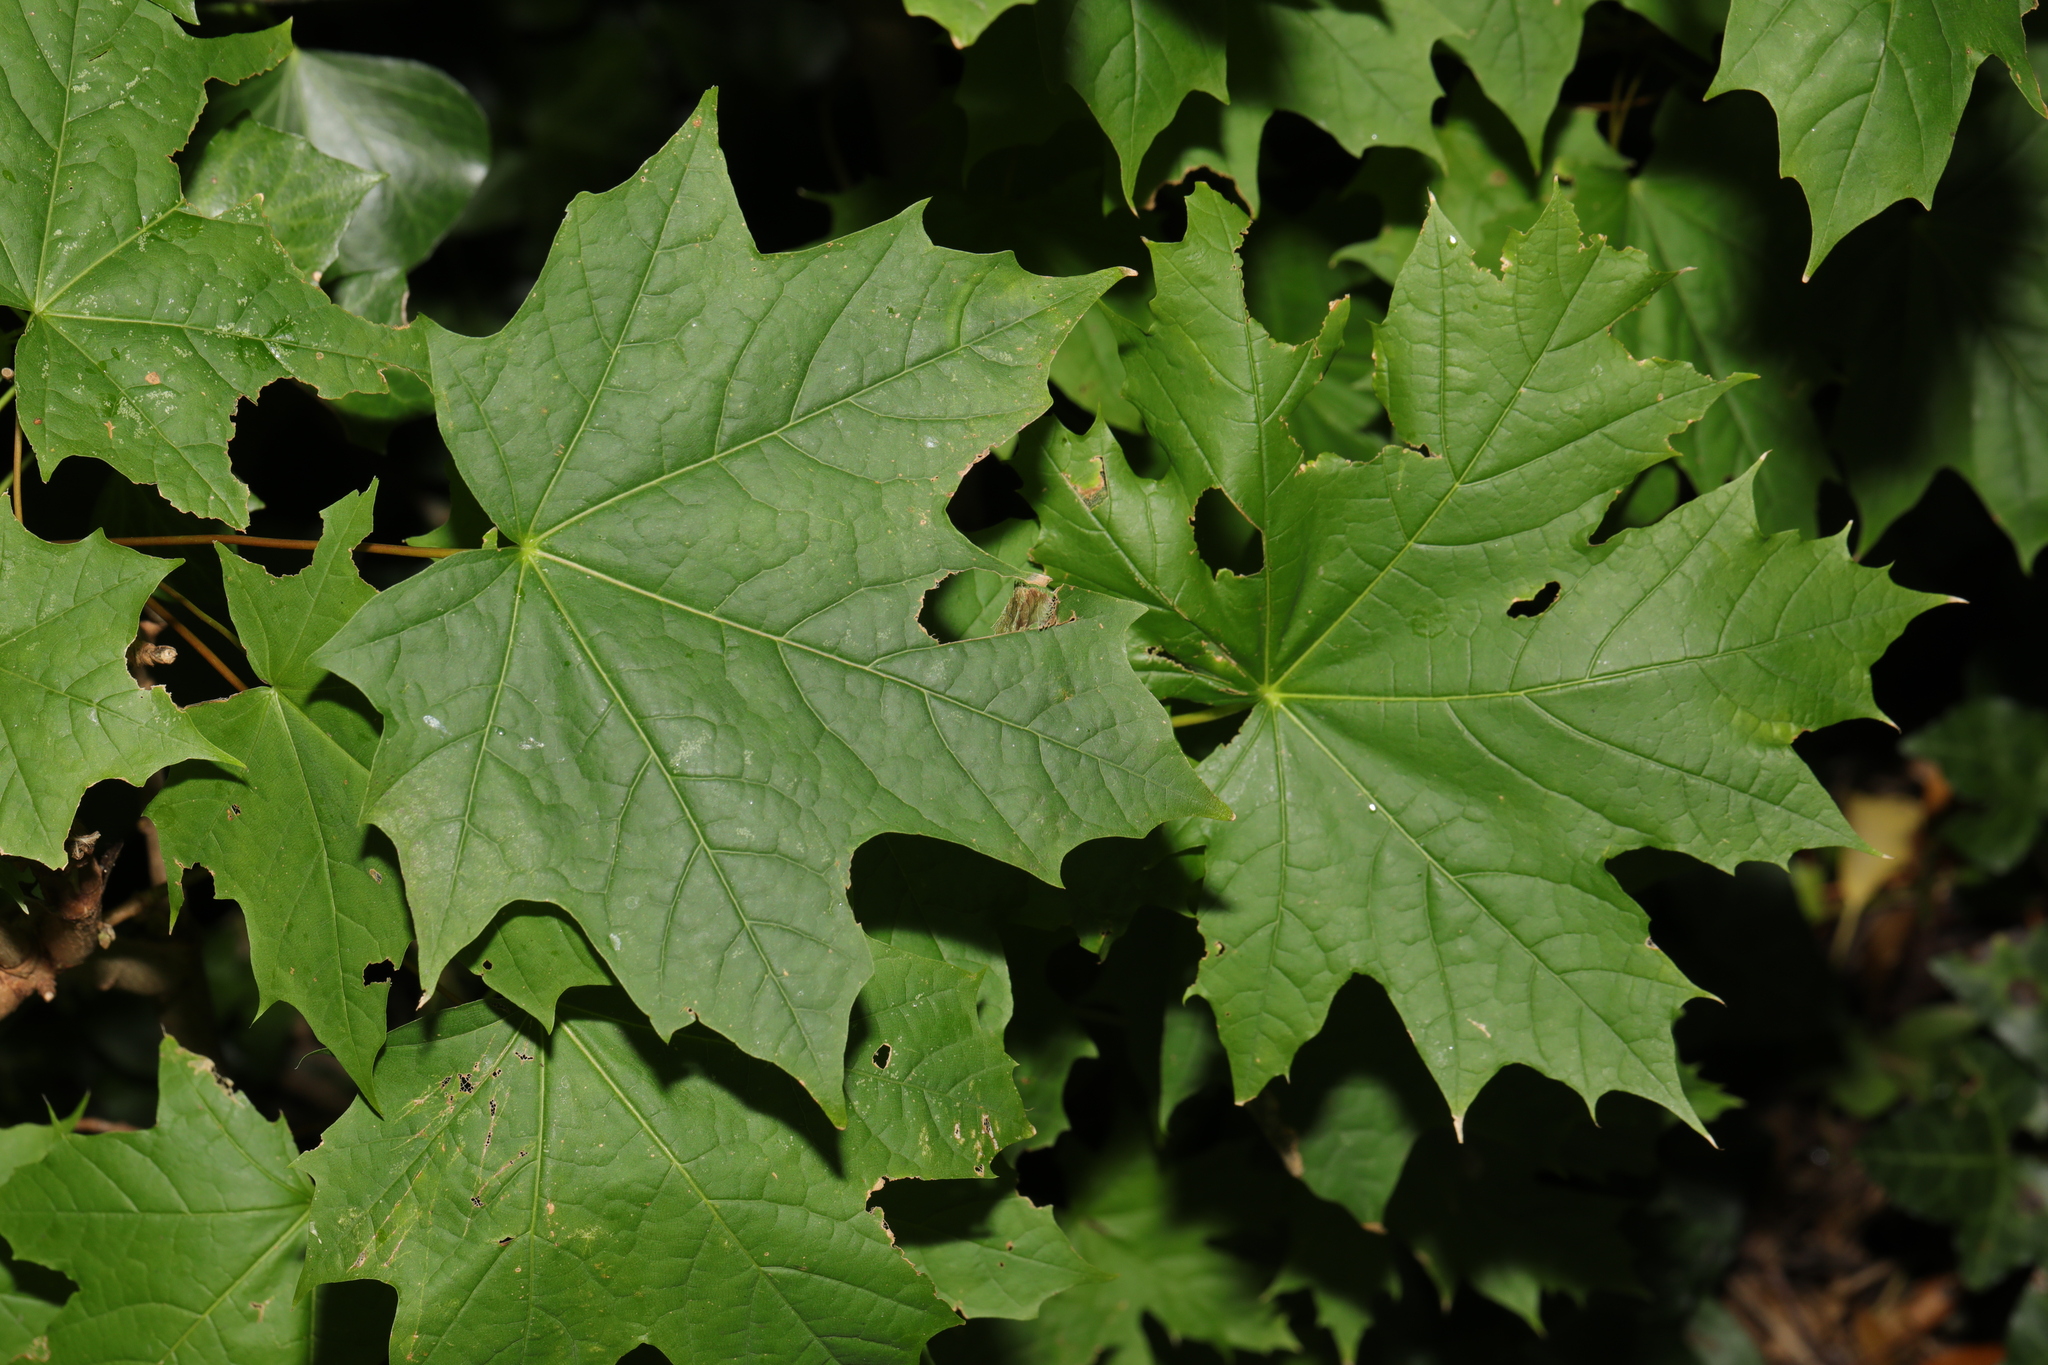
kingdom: Plantae
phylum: Tracheophyta
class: Magnoliopsida
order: Sapindales
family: Sapindaceae
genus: Acer
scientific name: Acer platanoides
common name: Norway maple
